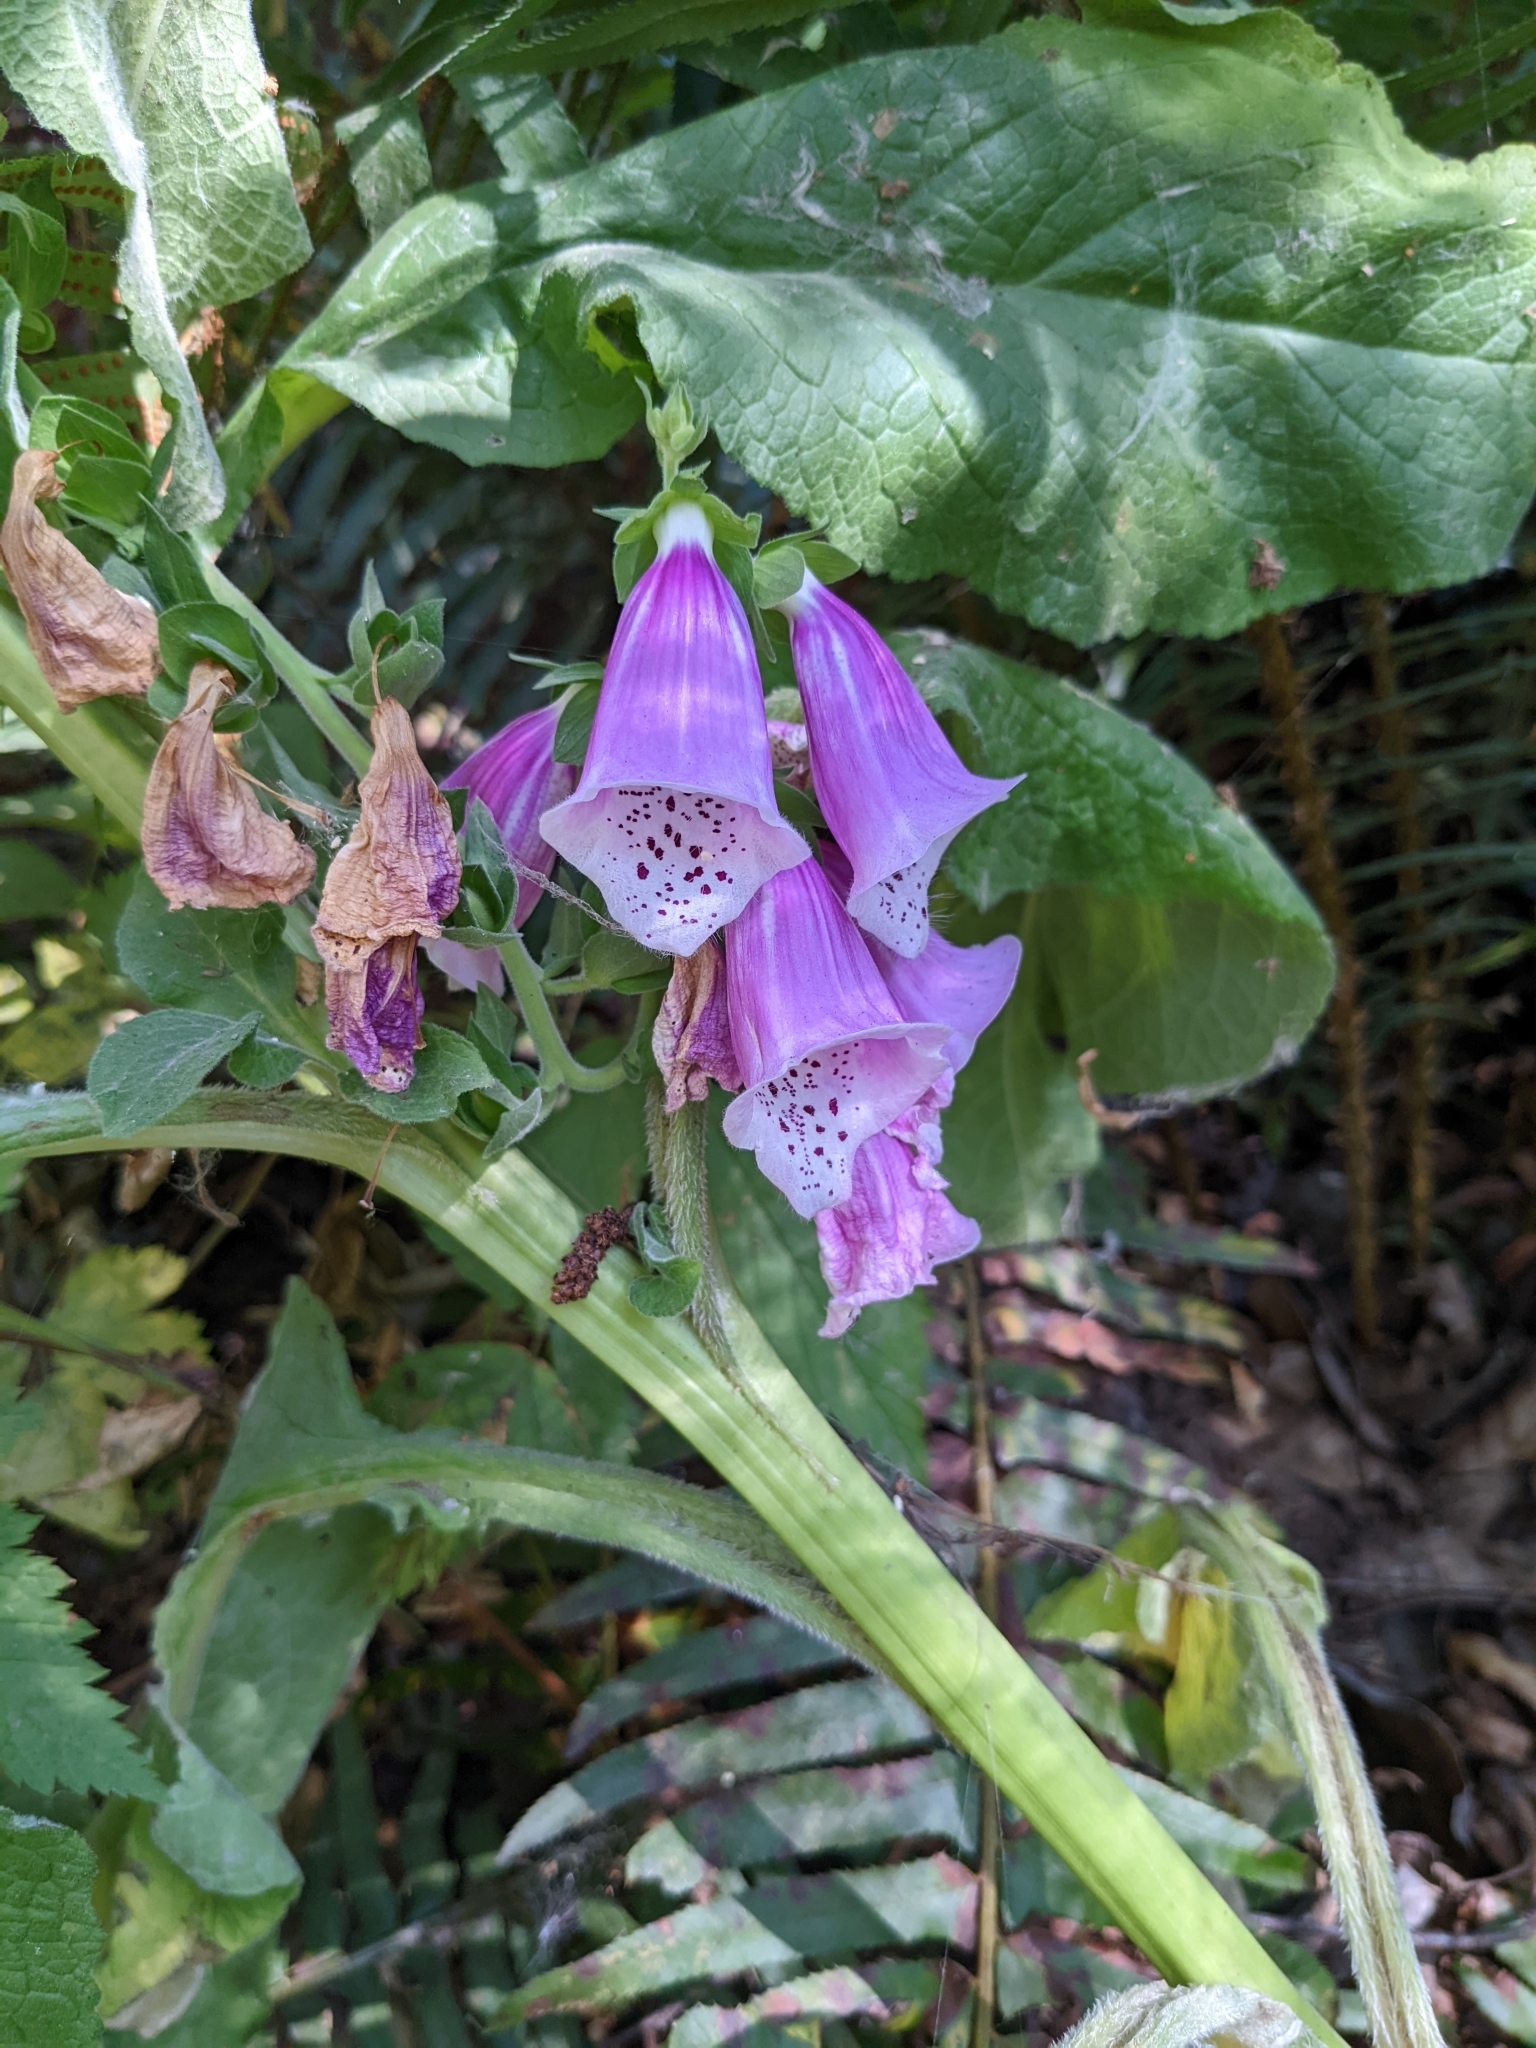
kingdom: Plantae
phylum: Tracheophyta
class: Magnoliopsida
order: Lamiales
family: Plantaginaceae
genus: Digitalis
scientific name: Digitalis purpurea
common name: Foxglove
